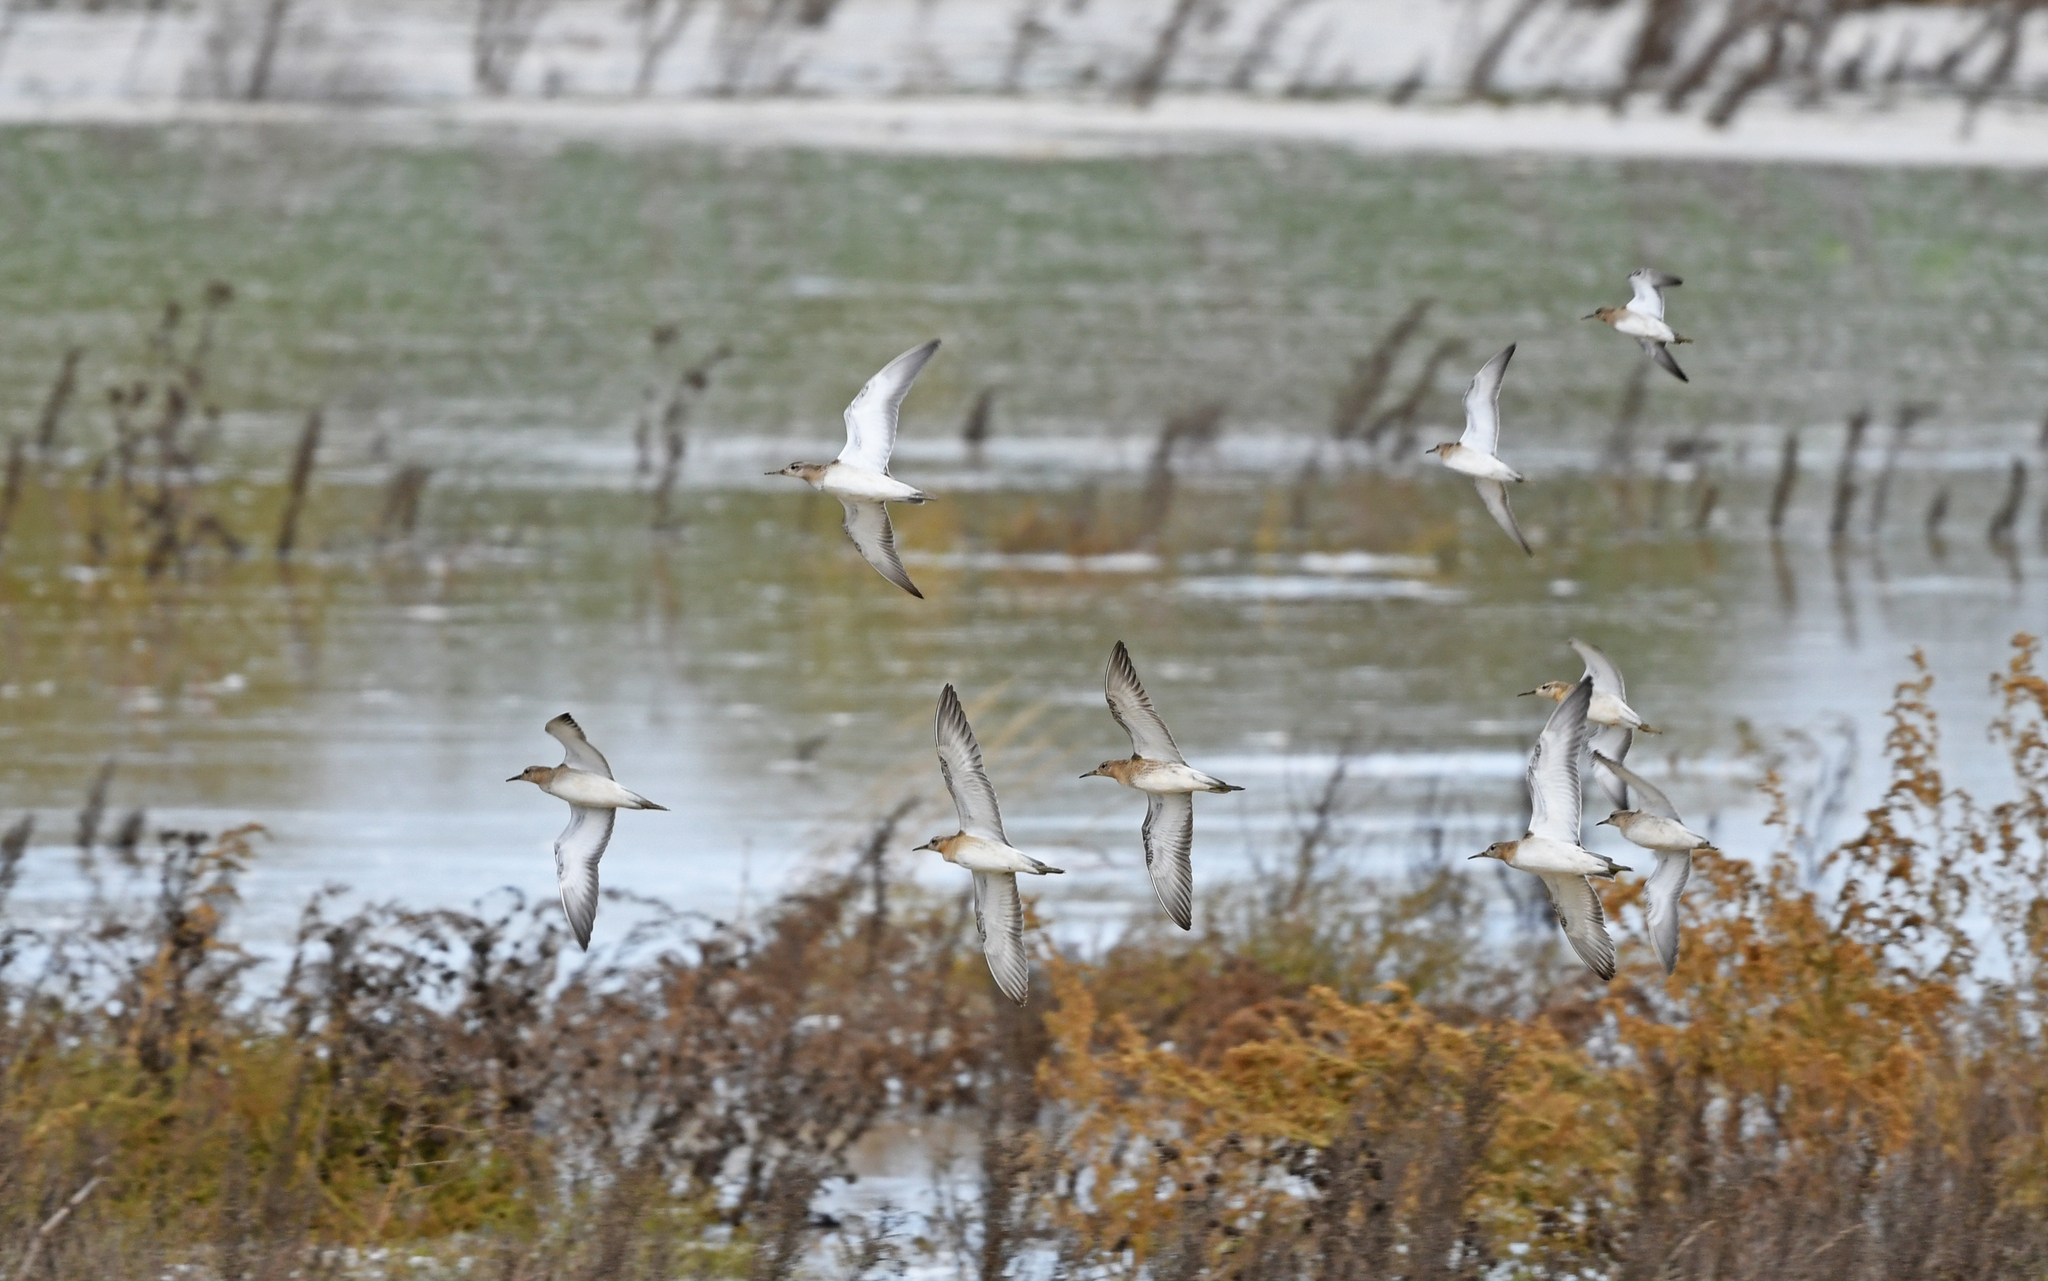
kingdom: Animalia
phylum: Chordata
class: Aves
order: Charadriiformes
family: Scolopacidae
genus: Calidris
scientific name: Calidris pugnax
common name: Ruff
